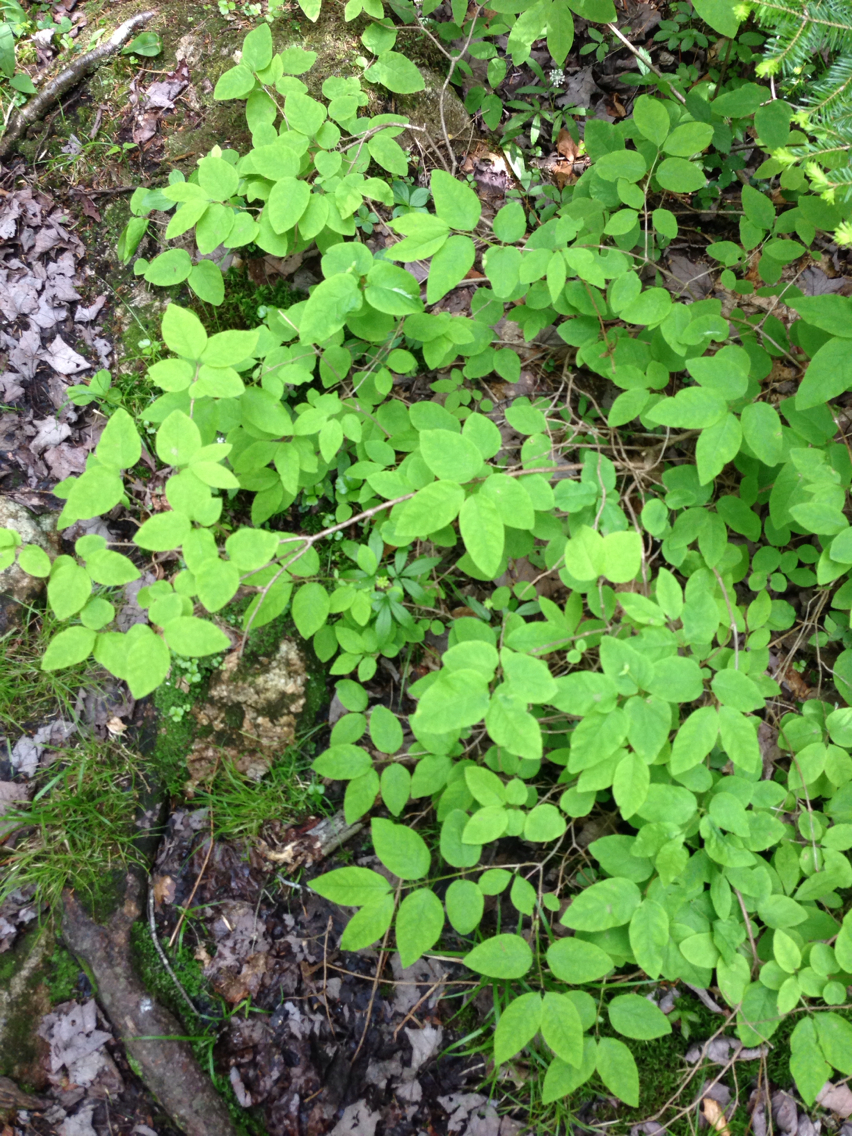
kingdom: Plantae
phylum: Tracheophyta
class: Magnoliopsida
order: Dipsacales
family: Caprifoliaceae
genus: Lonicera
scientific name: Lonicera canadensis
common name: American fly-honeysuckle
